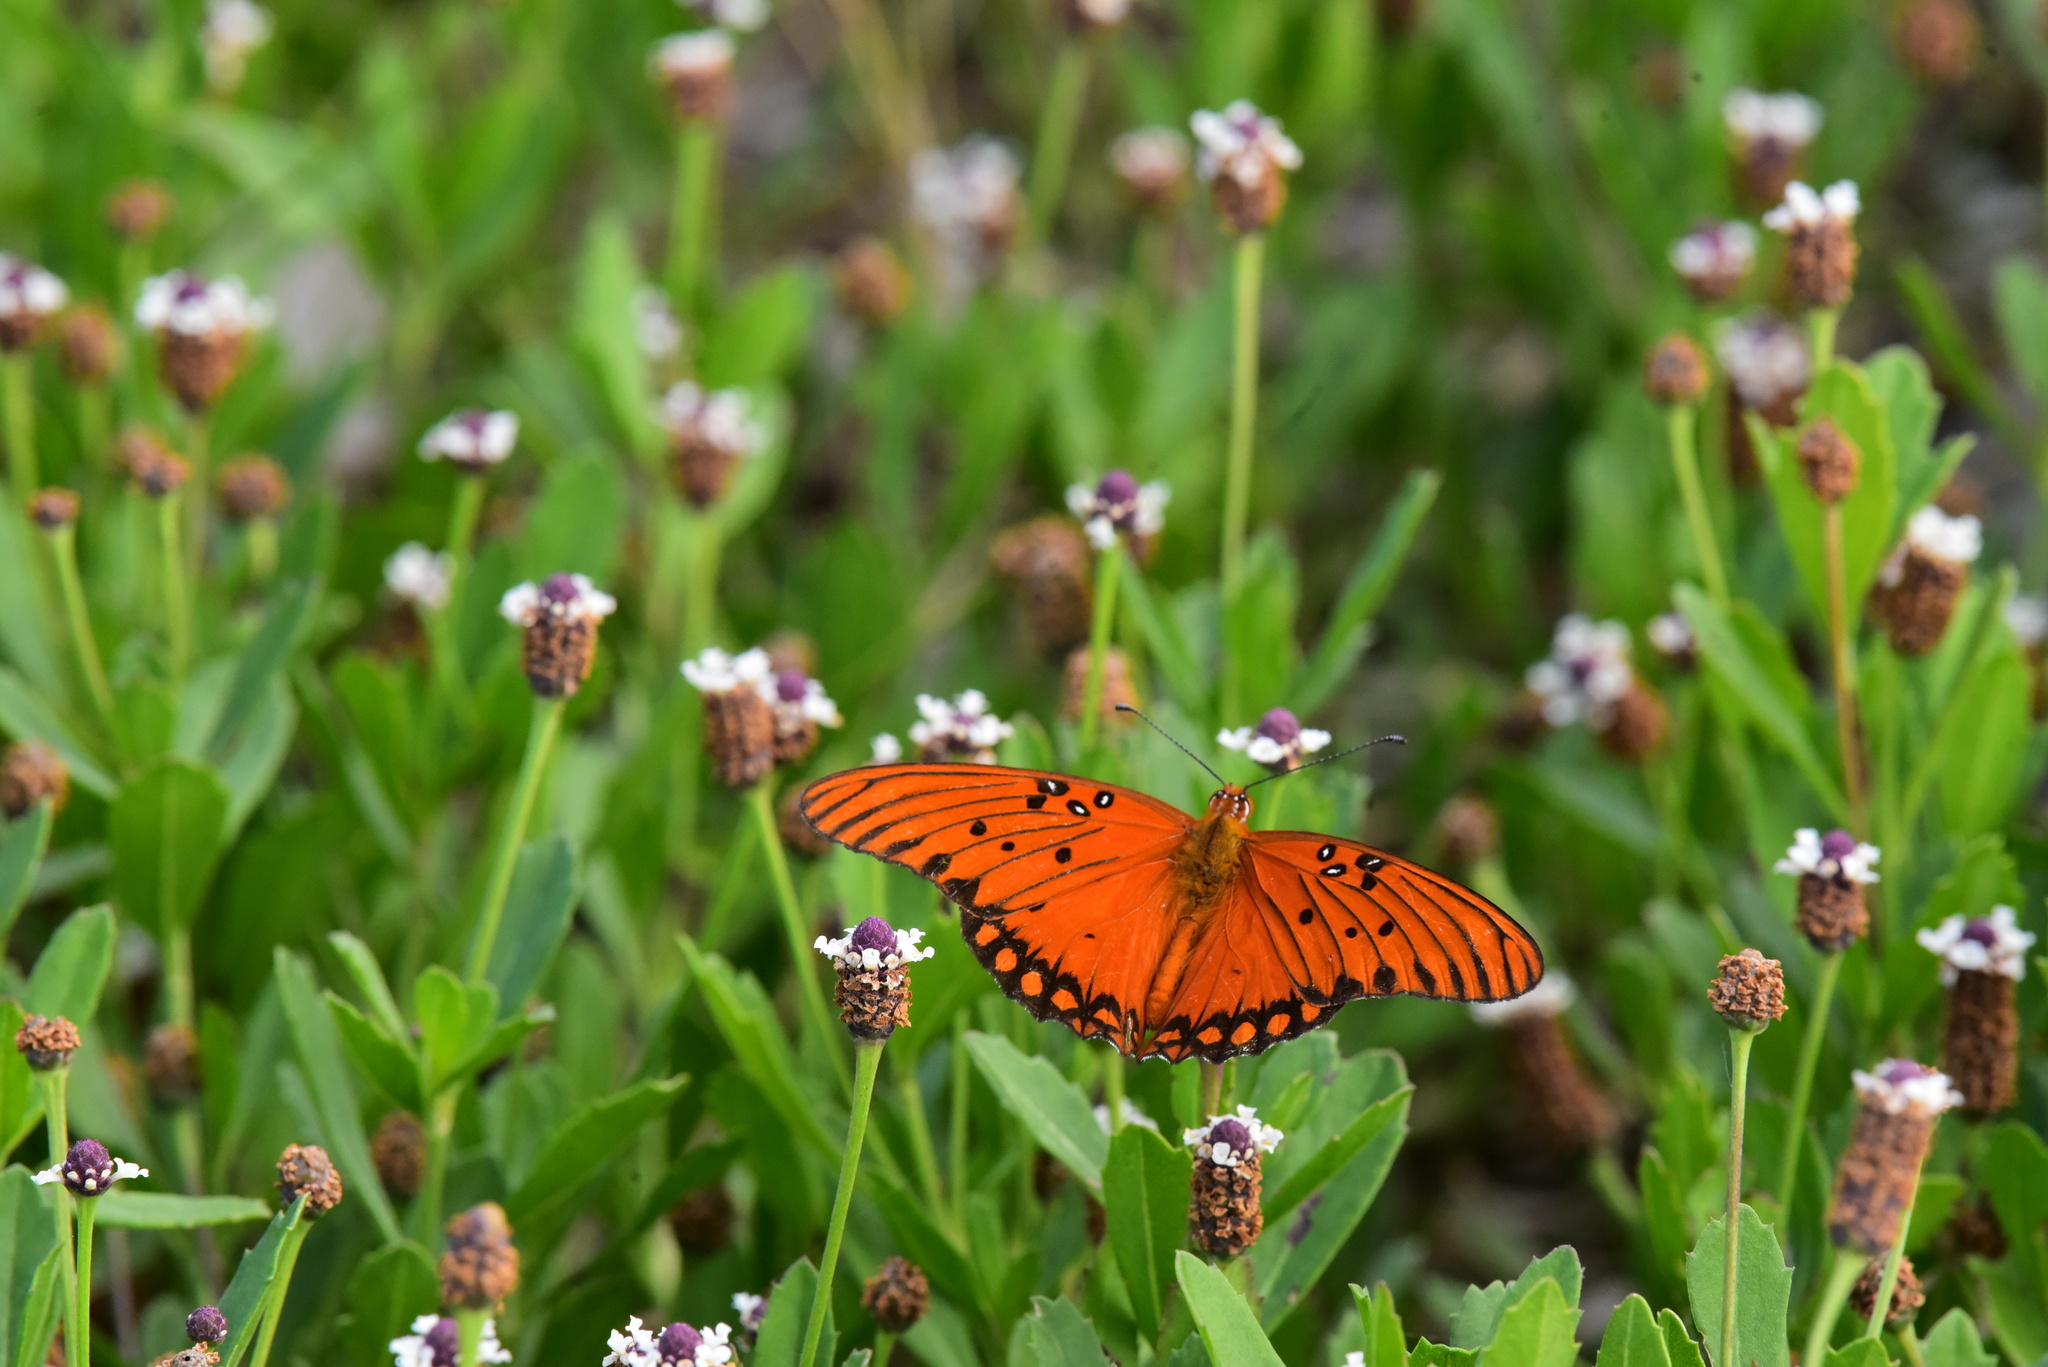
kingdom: Animalia
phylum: Arthropoda
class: Insecta
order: Lepidoptera
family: Nymphalidae
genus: Dione
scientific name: Dione vanillae
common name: Gulf fritillary
